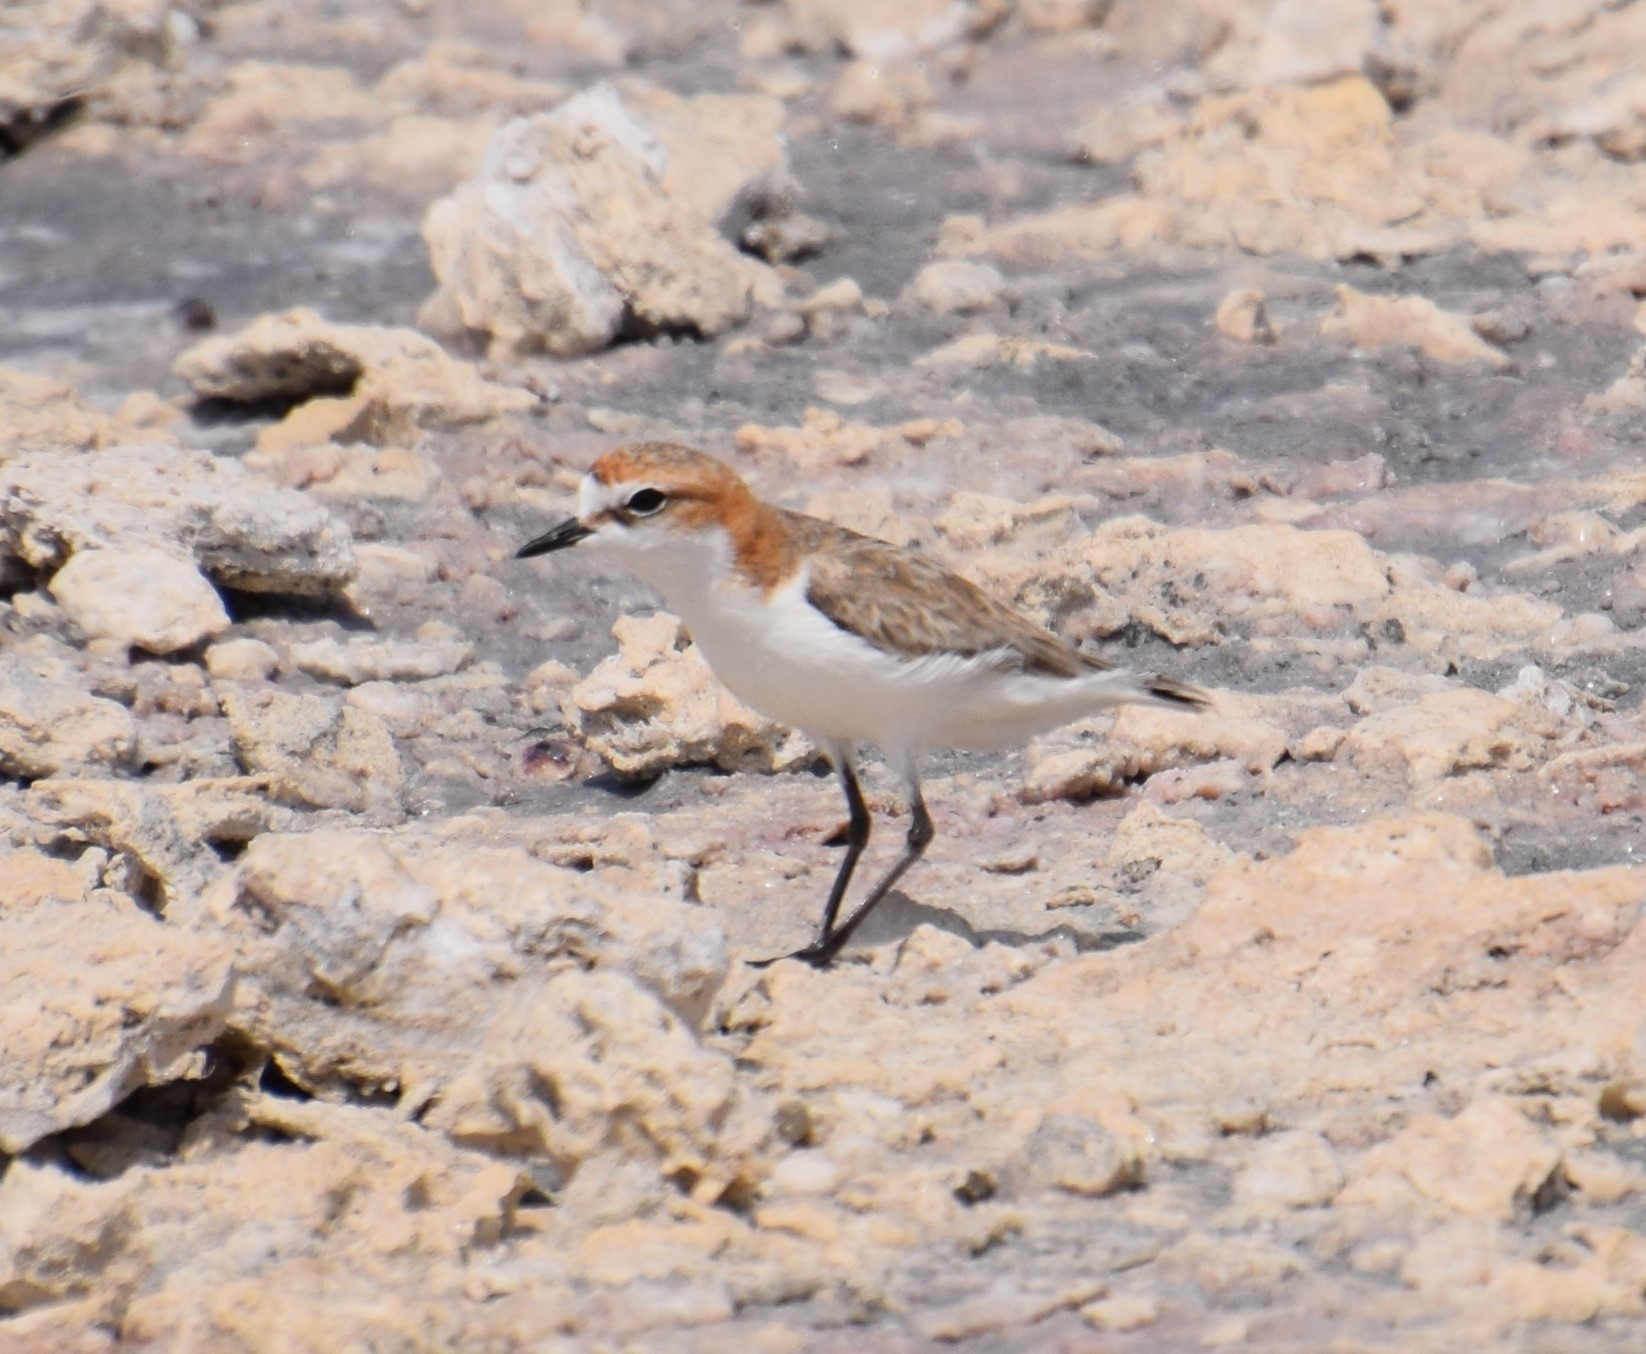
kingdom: Animalia
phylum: Chordata
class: Aves
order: Charadriiformes
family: Charadriidae
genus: Anarhynchus
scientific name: Anarhynchus
